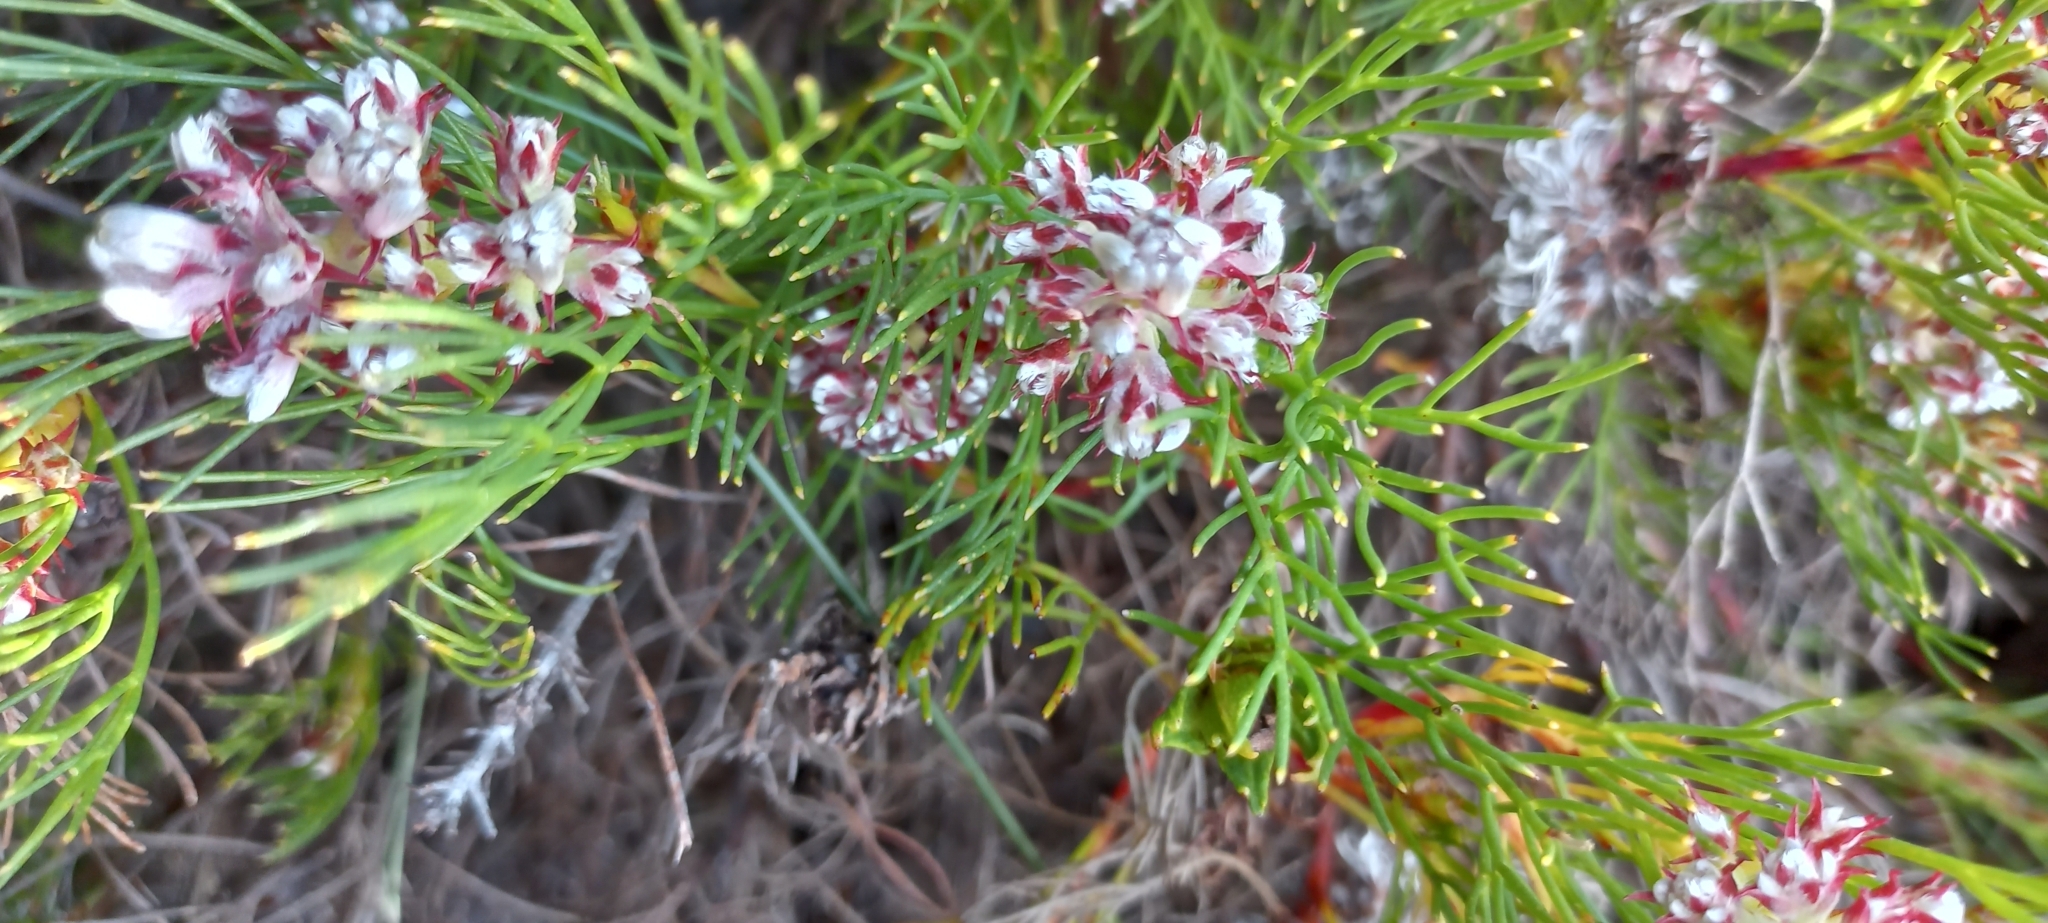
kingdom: Plantae
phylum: Tracheophyta
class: Magnoliopsida
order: Proteales
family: Proteaceae
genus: Serruria
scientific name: Serruria rubricaulis
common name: Red-stem spiderhead
